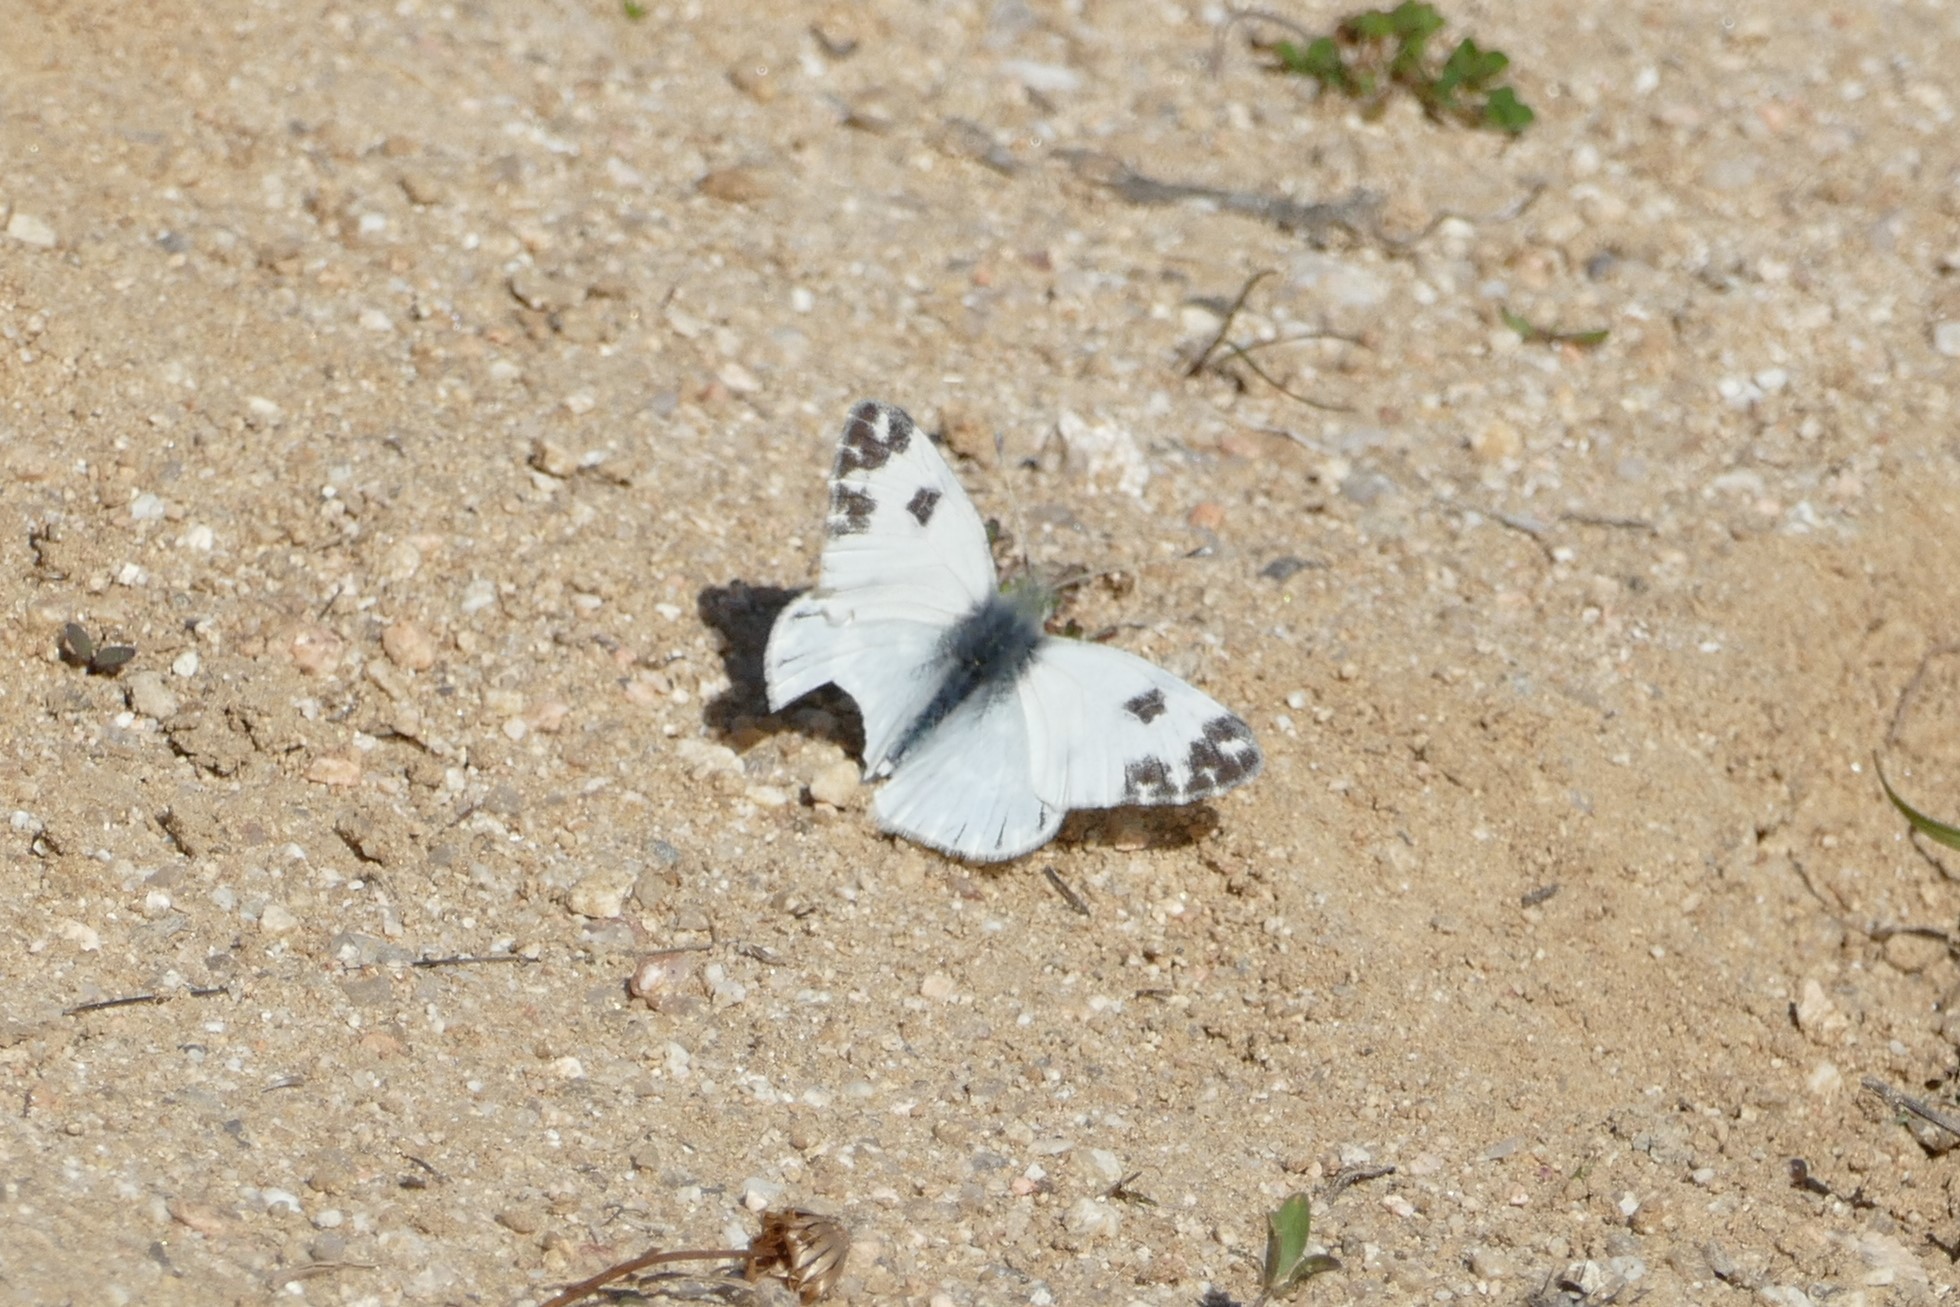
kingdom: Animalia
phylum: Arthropoda
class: Insecta
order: Lepidoptera
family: Pieridae
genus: Pontia
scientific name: Pontia daplidice
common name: Bath white
